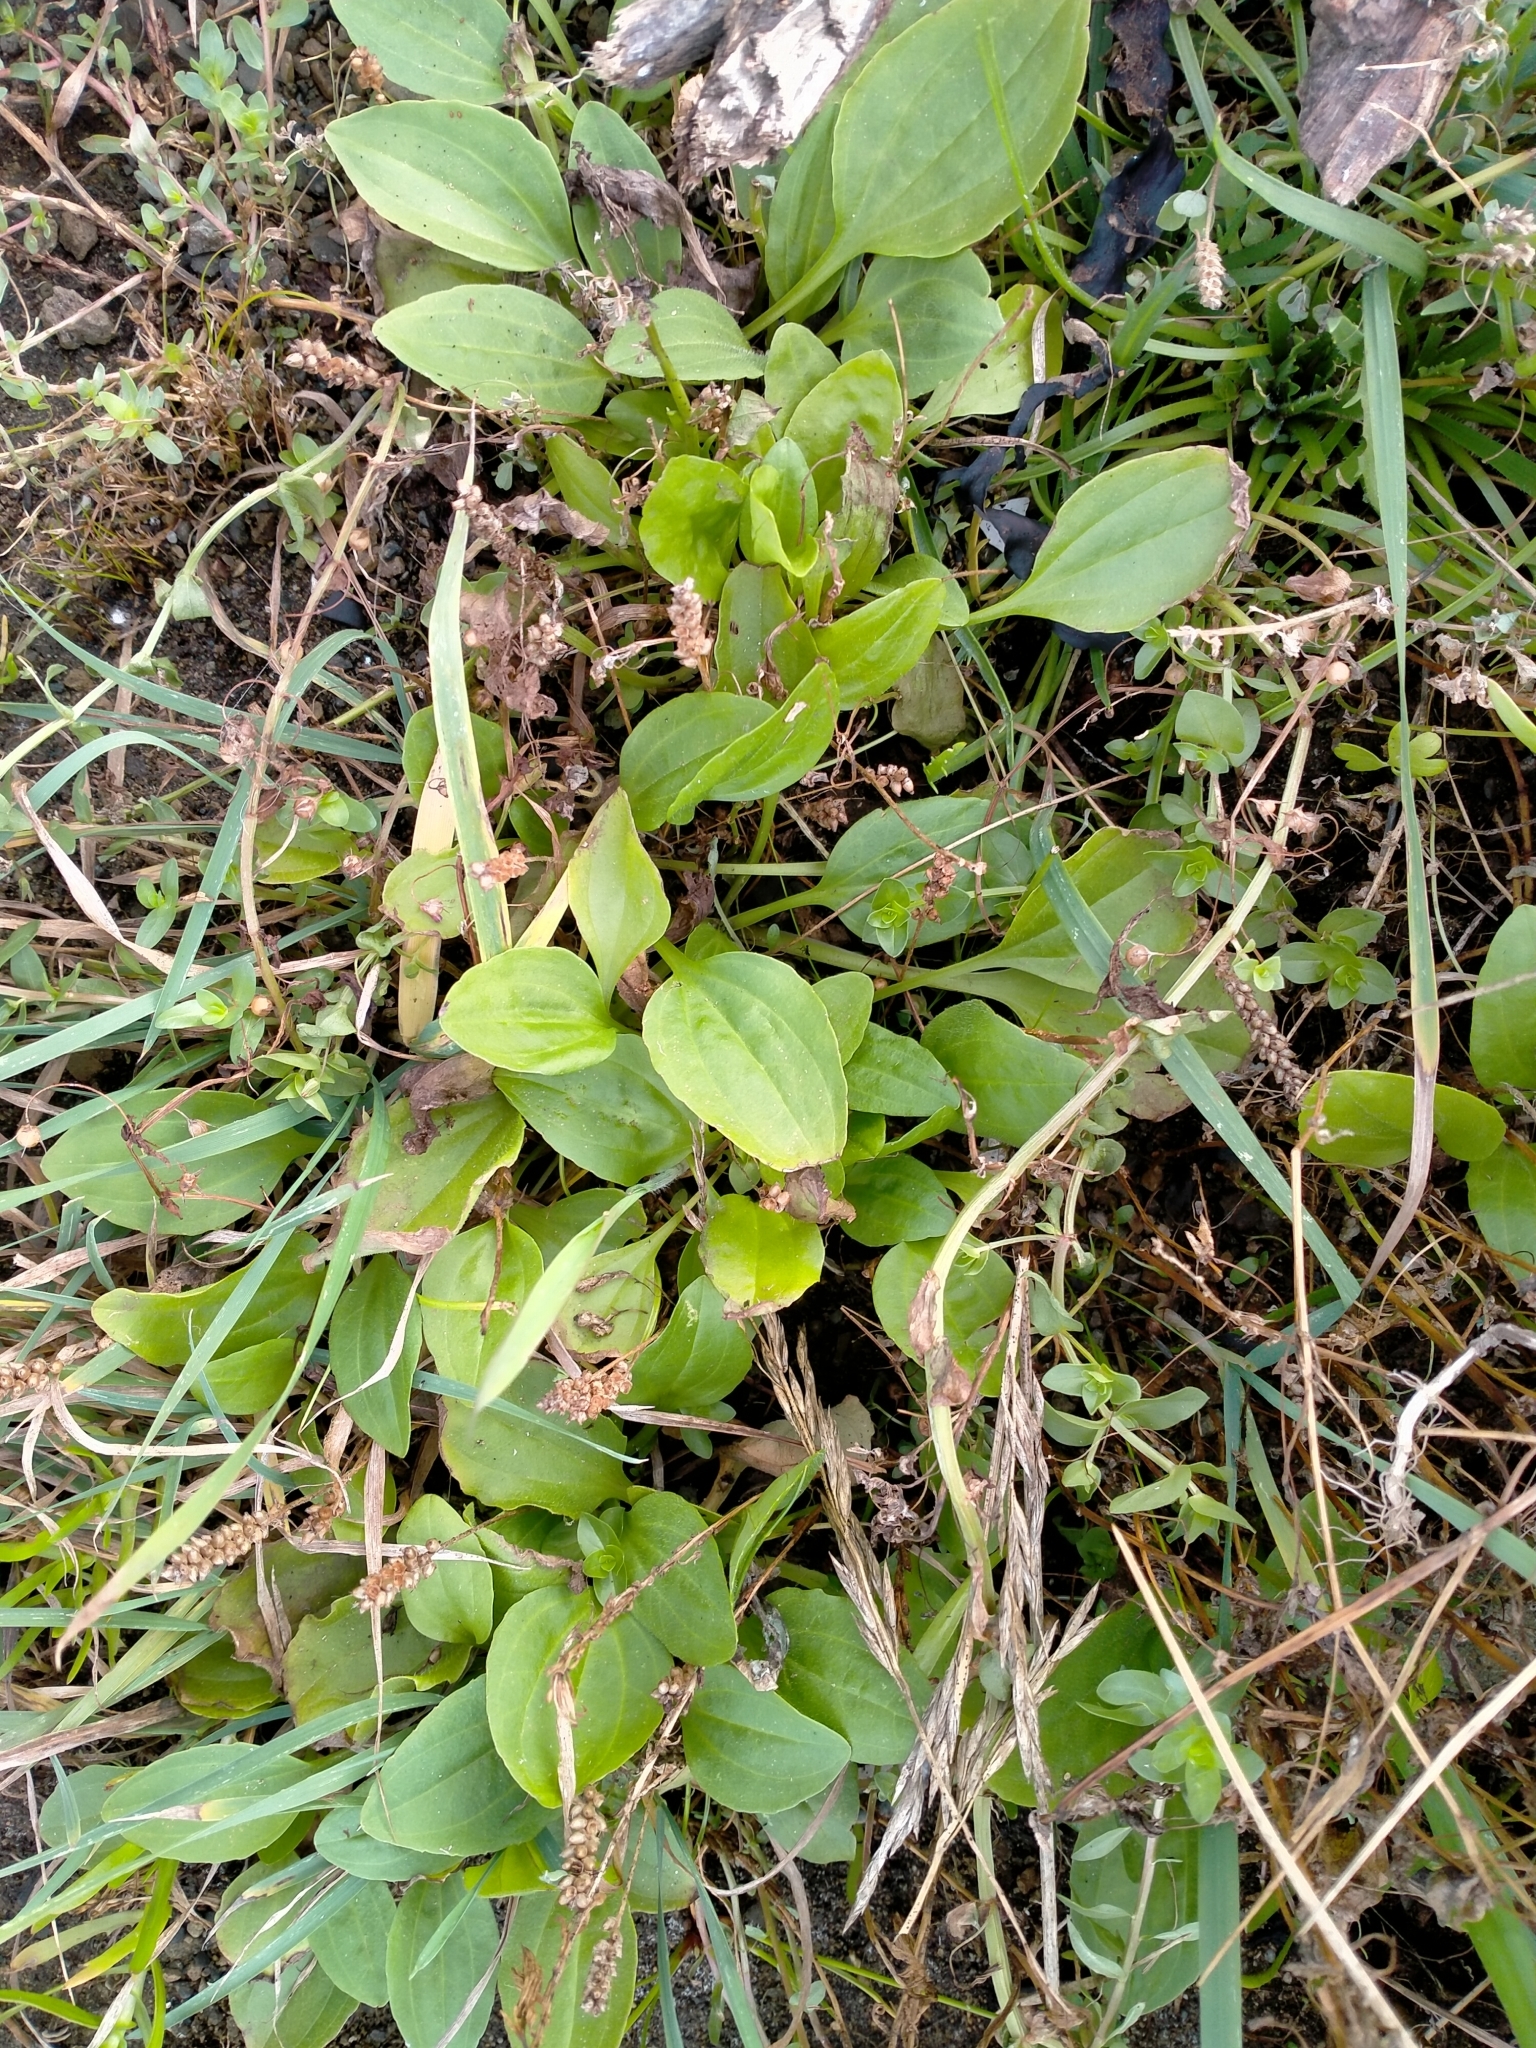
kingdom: Plantae
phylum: Tracheophyta
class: Magnoliopsida
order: Lamiales
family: Plantaginaceae
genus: Plantago
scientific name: Plantago major
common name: Common plantain
